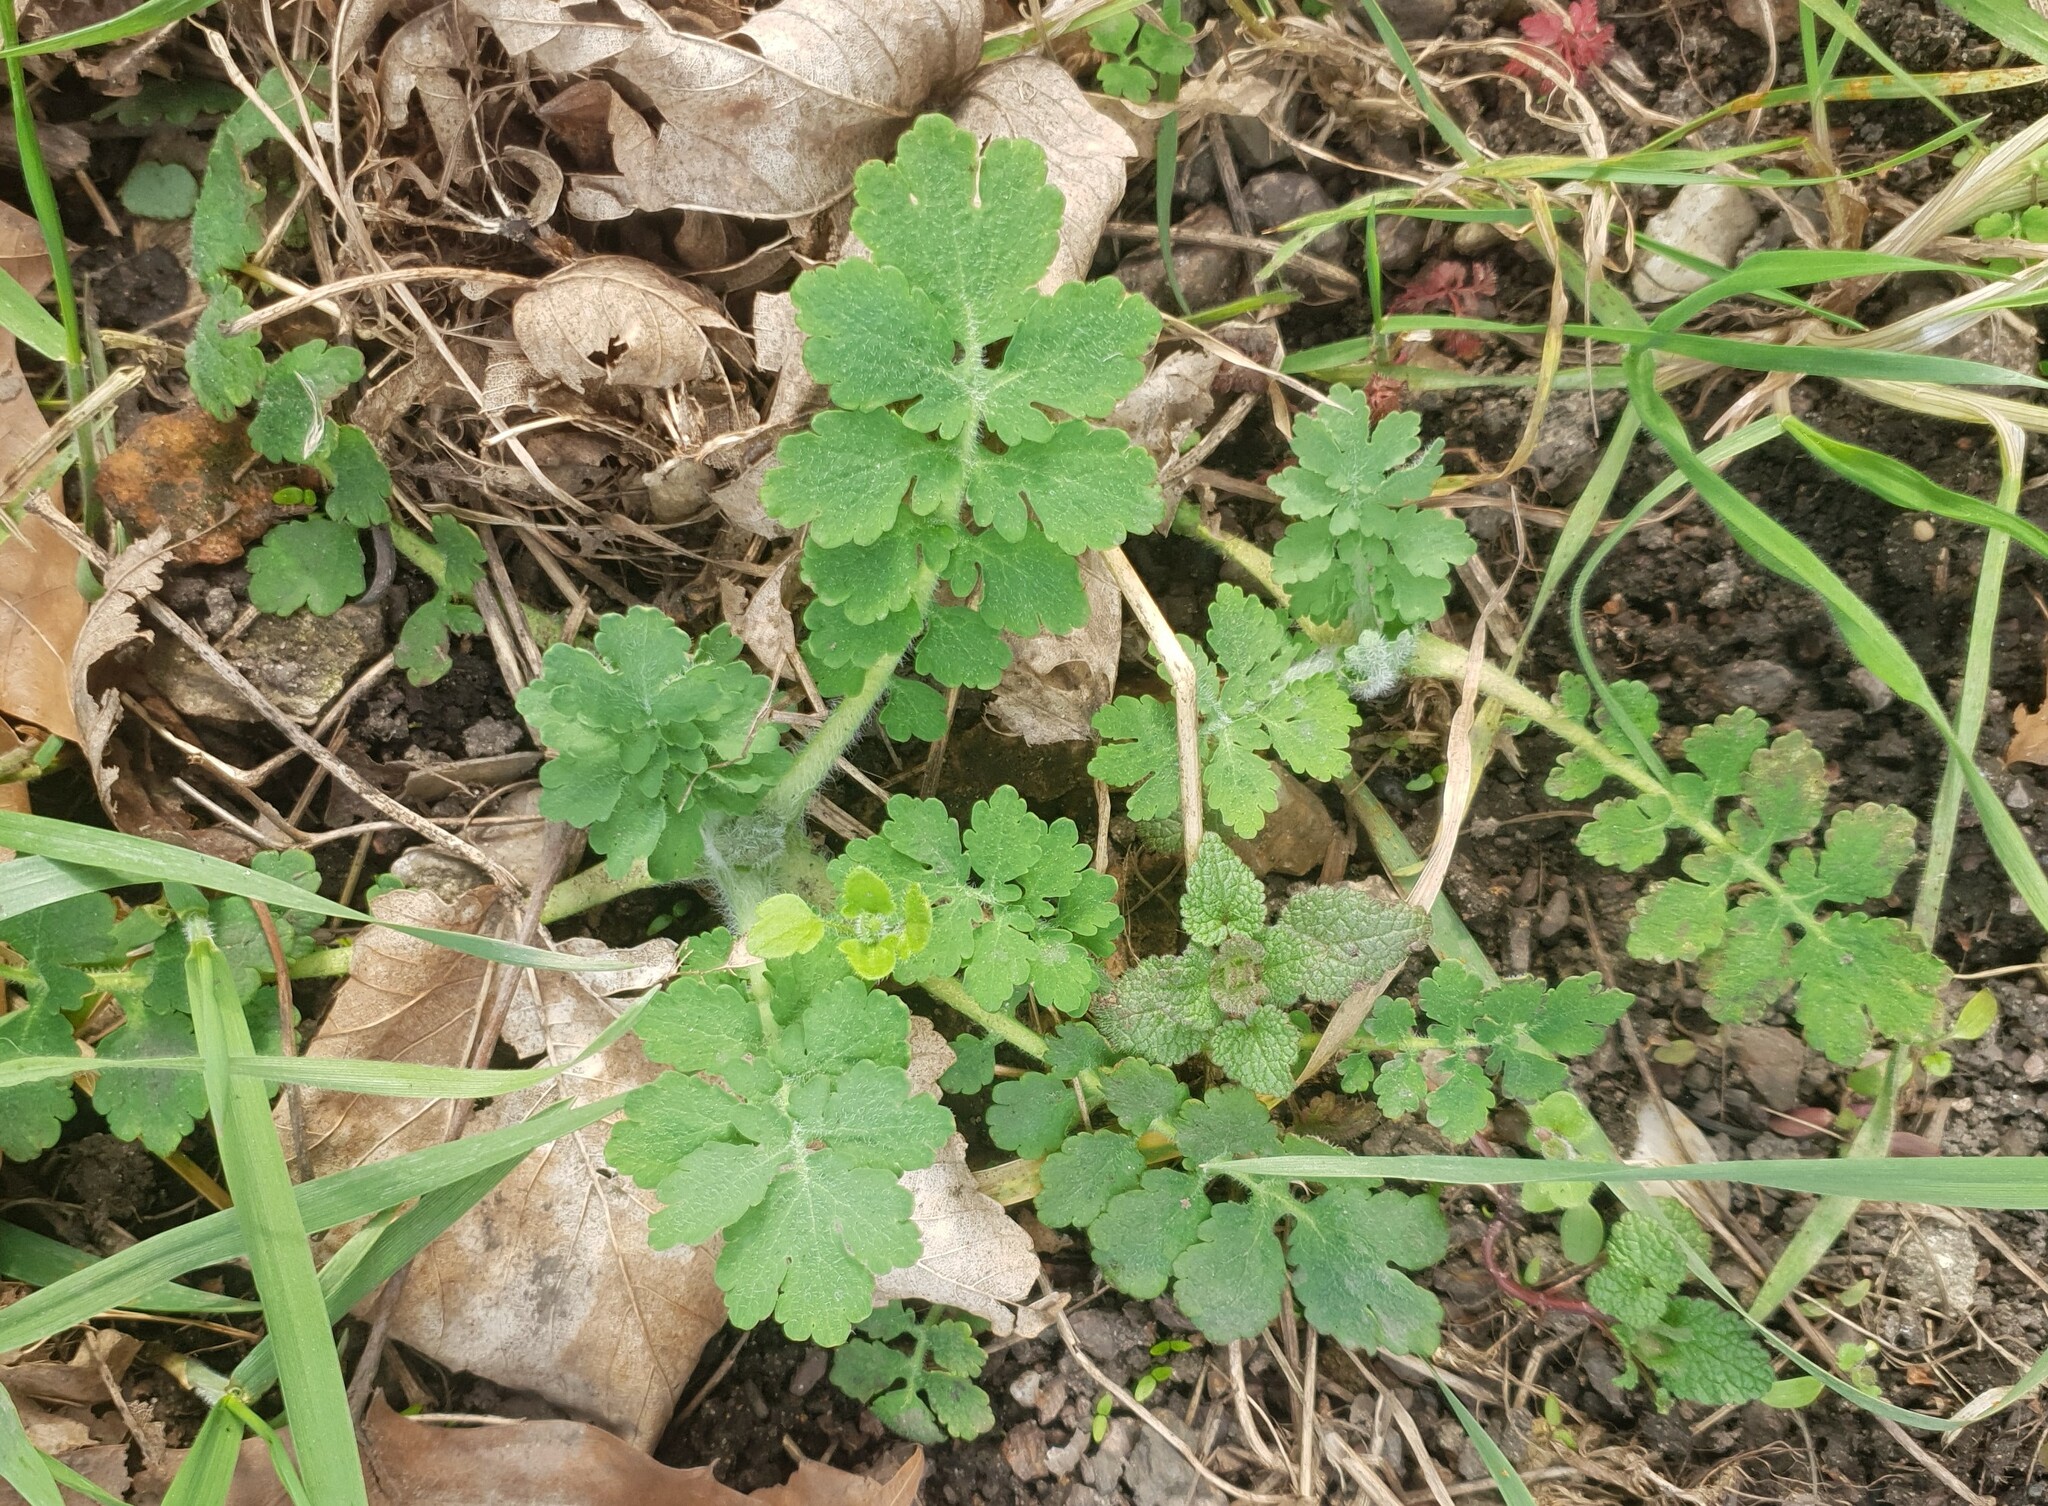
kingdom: Plantae
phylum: Tracheophyta
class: Magnoliopsida
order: Ranunculales
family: Papaveraceae
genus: Chelidonium
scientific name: Chelidonium majus
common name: Greater celandine
